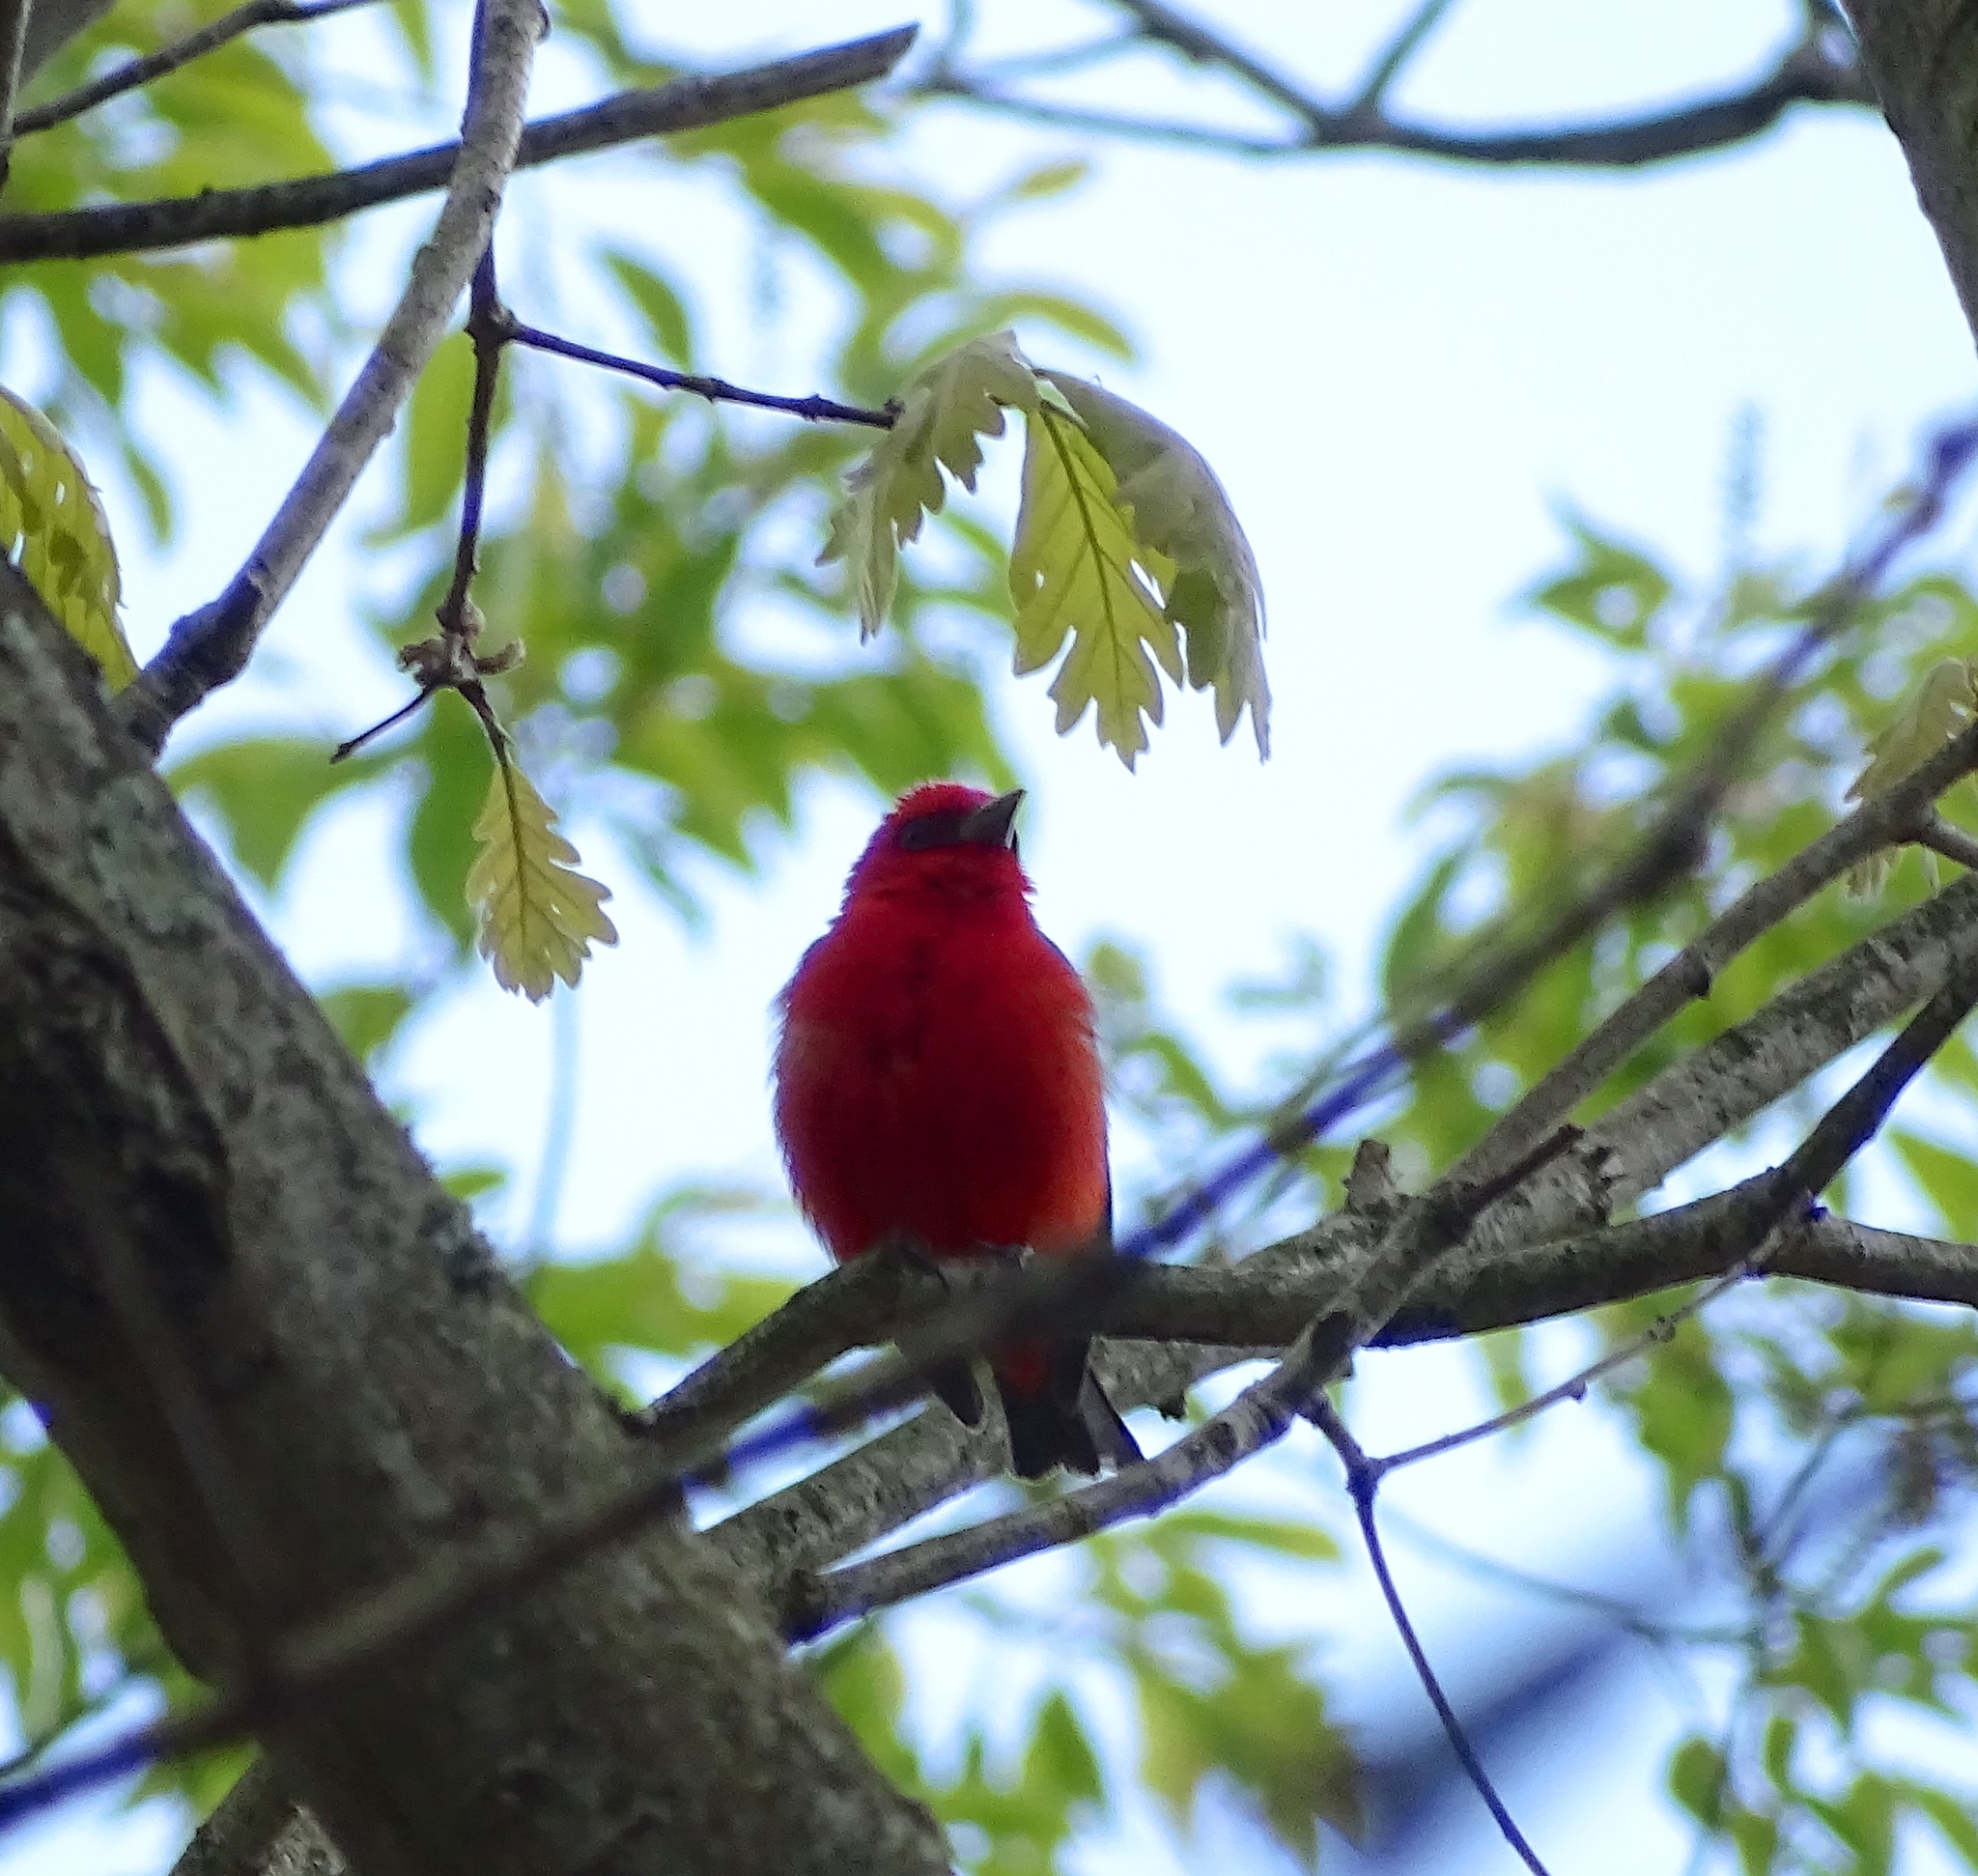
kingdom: Animalia
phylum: Chordata
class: Aves
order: Passeriformes
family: Cardinalidae
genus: Piranga
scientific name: Piranga olivacea
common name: Scarlet tanager
